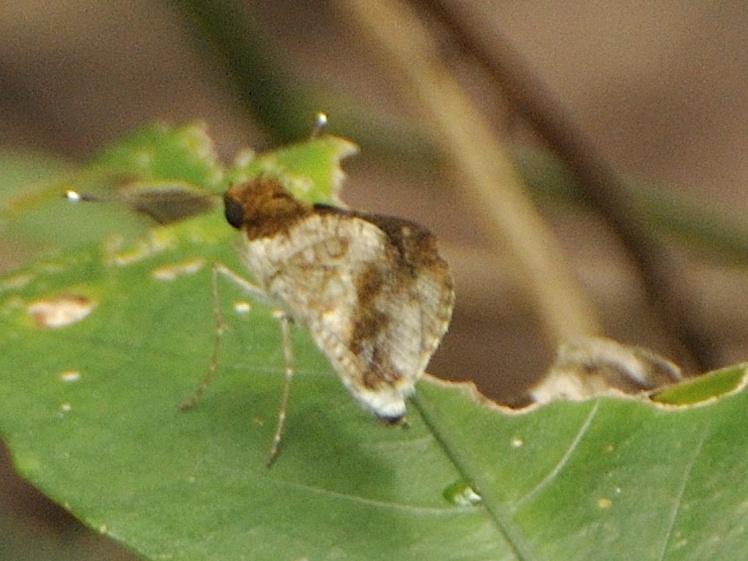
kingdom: Animalia
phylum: Arthropoda
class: Insecta
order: Lepidoptera
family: Hesperiidae
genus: Acleros
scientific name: Acleros mackenii
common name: Shade dart
